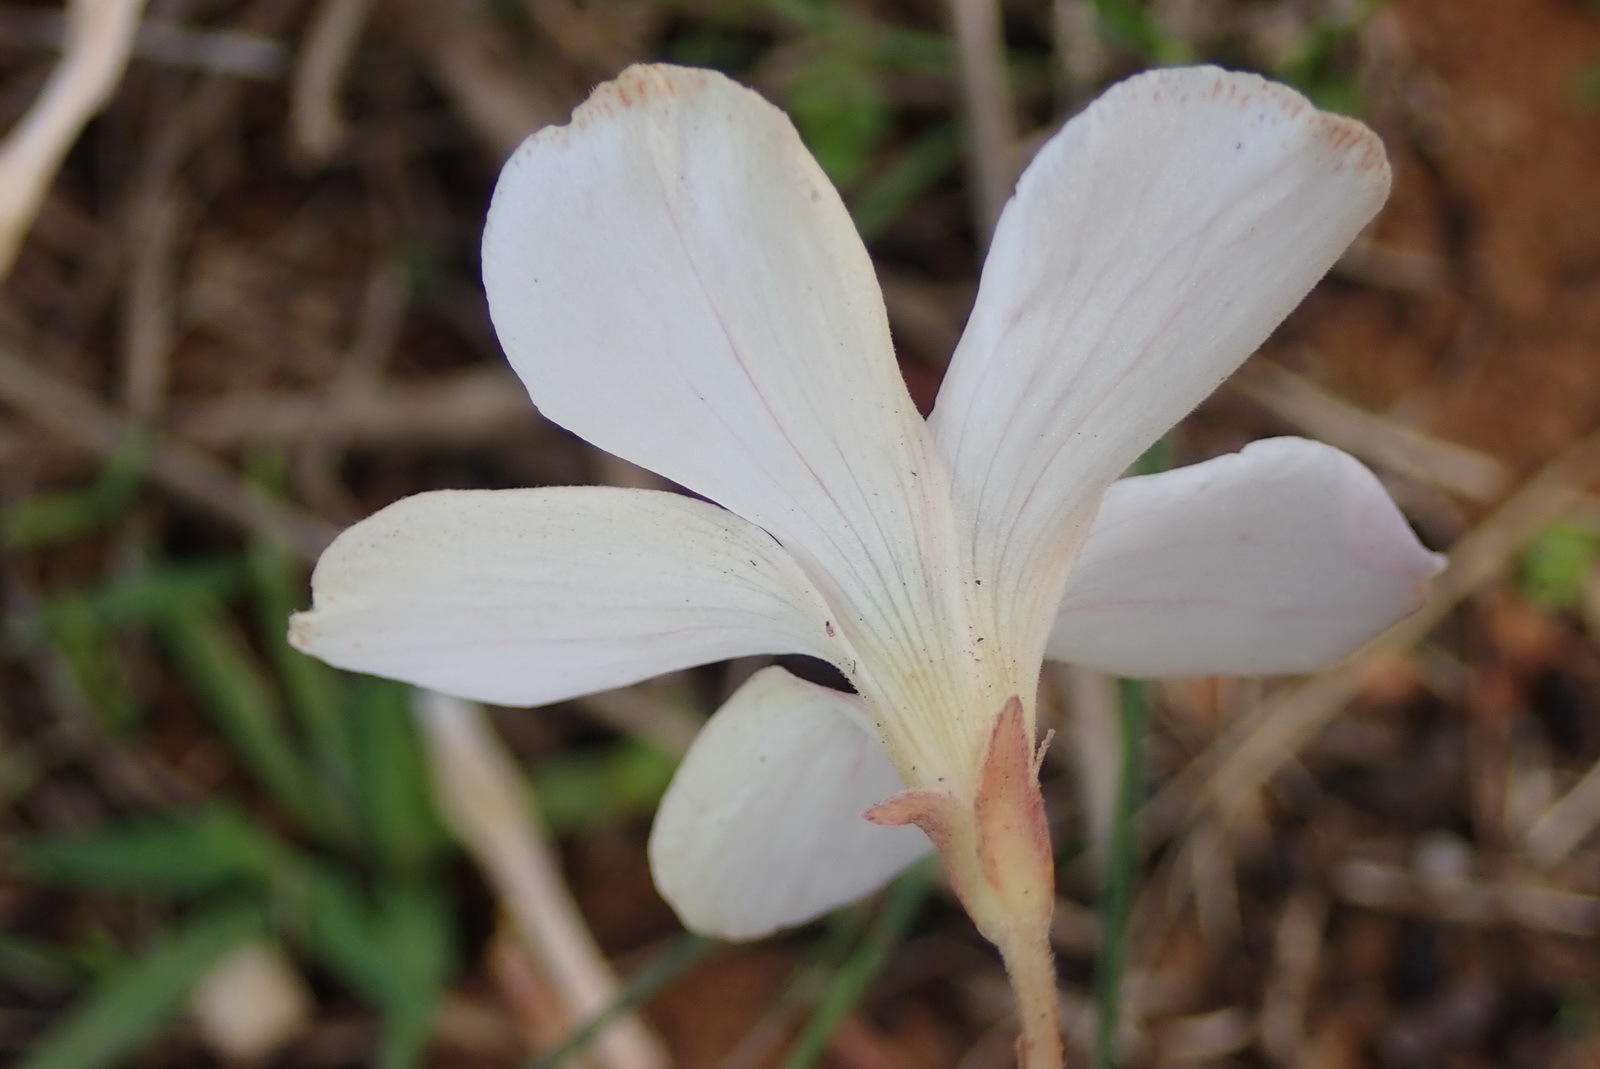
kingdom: Plantae
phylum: Tracheophyta
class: Magnoliopsida
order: Oxalidales
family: Oxalidaceae
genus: Oxalis
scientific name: Oxalis ciliaris
